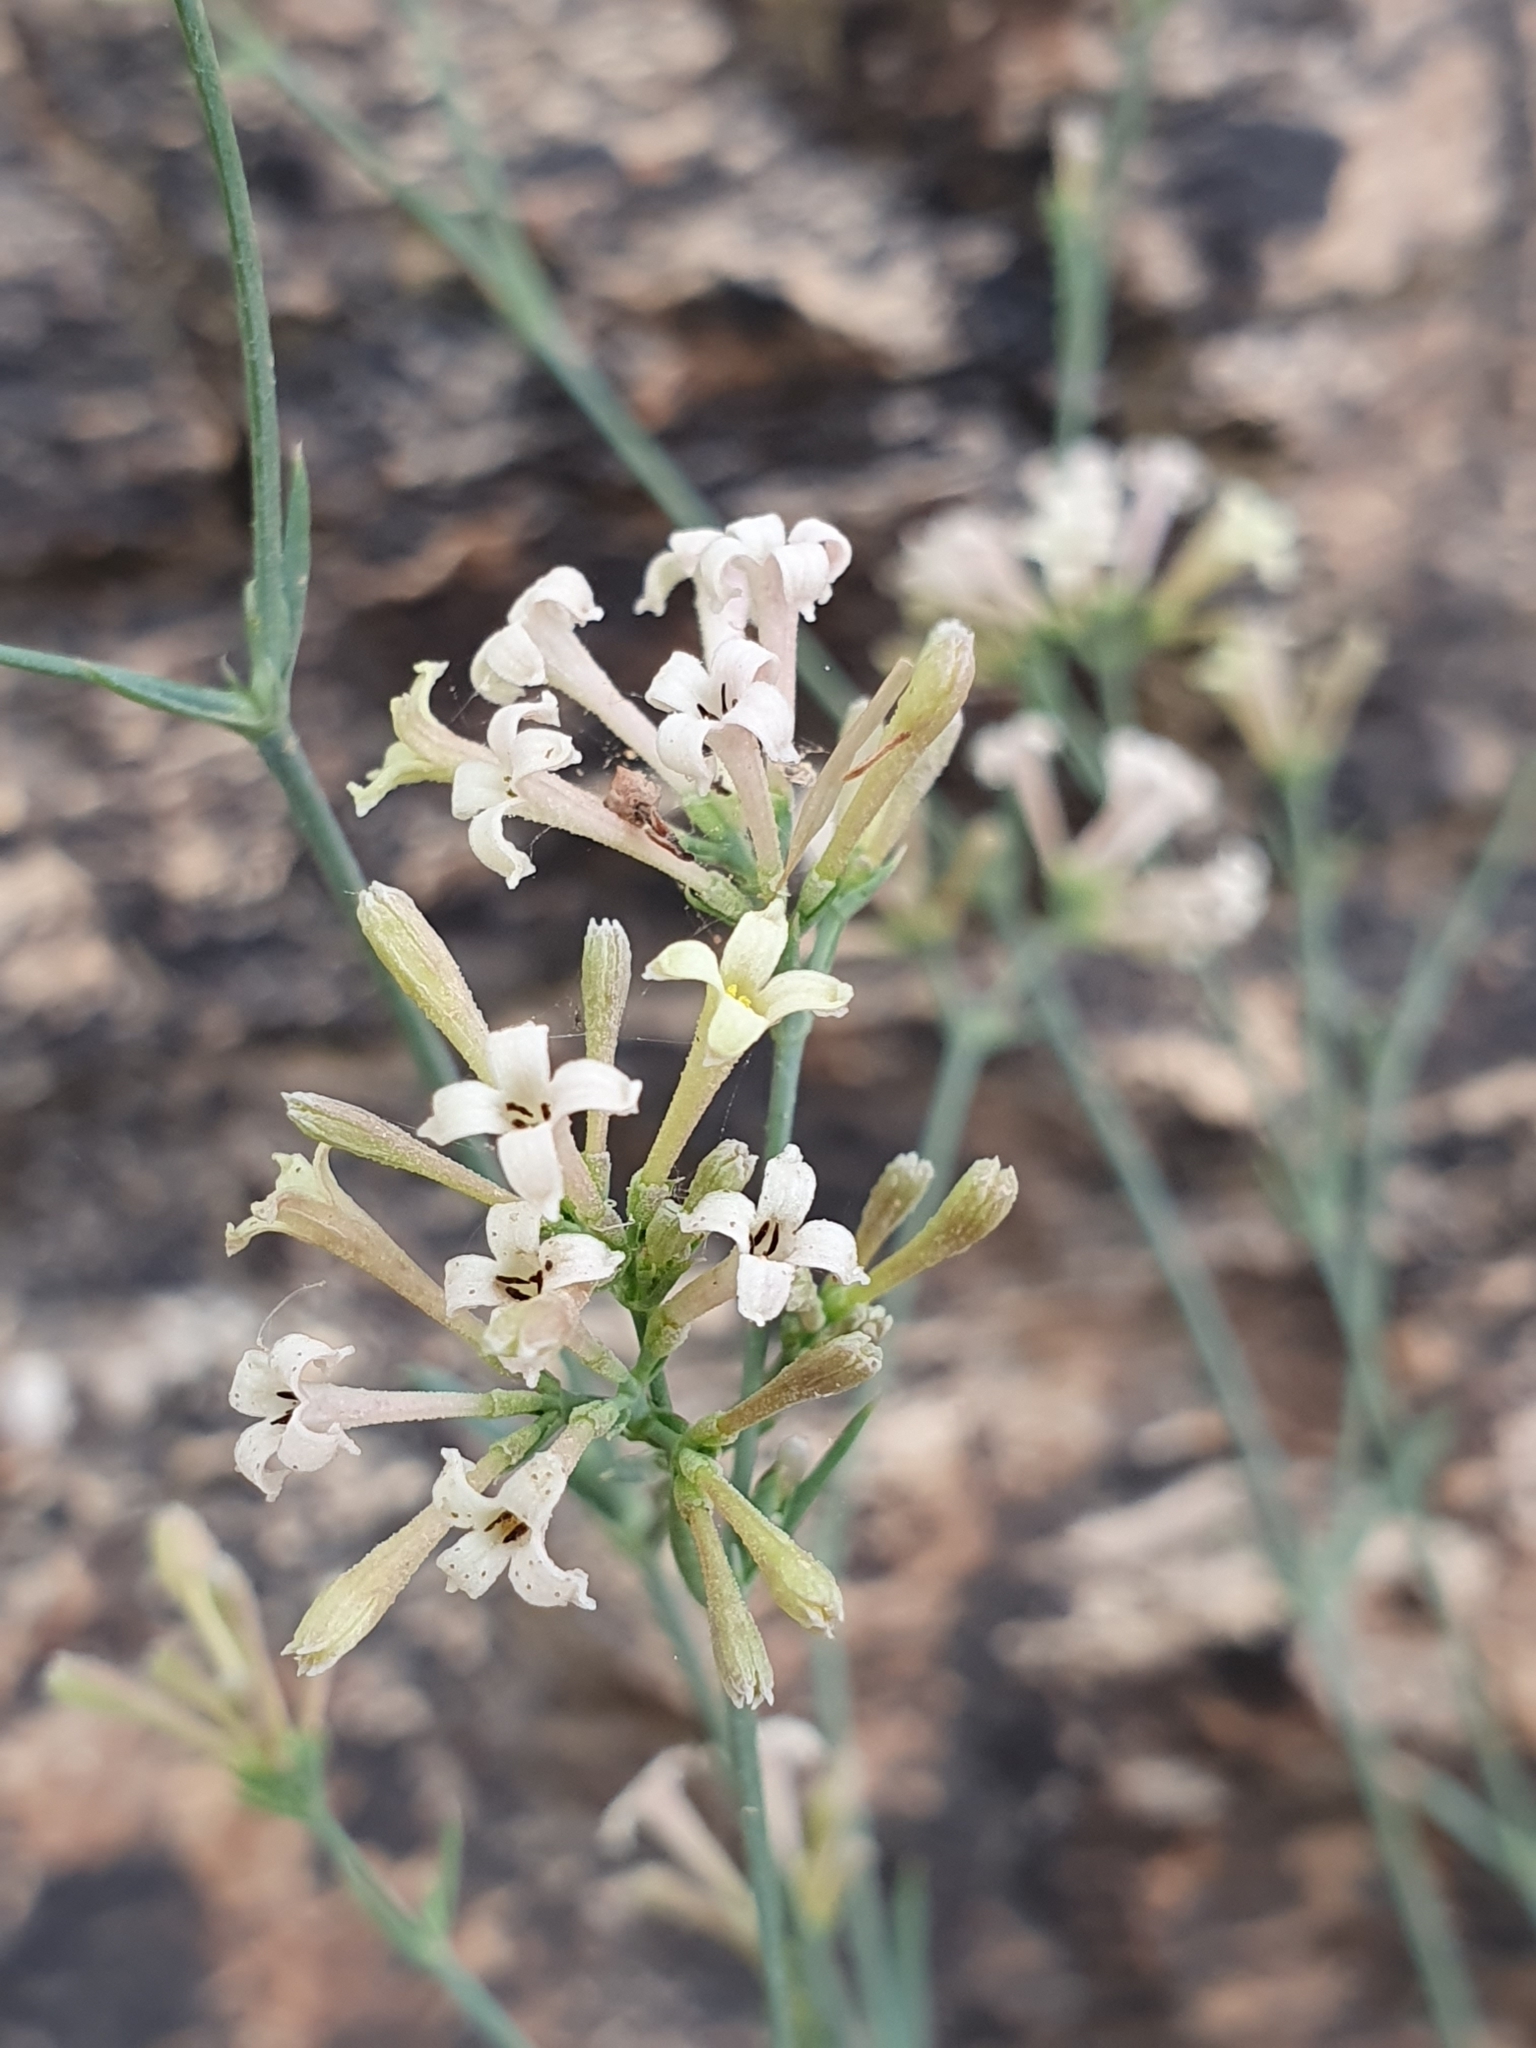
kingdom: Plantae
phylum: Tracheophyta
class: Magnoliopsida
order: Gentianales
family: Rubiaceae
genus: Cynanchica
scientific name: Cynanchica aristata
